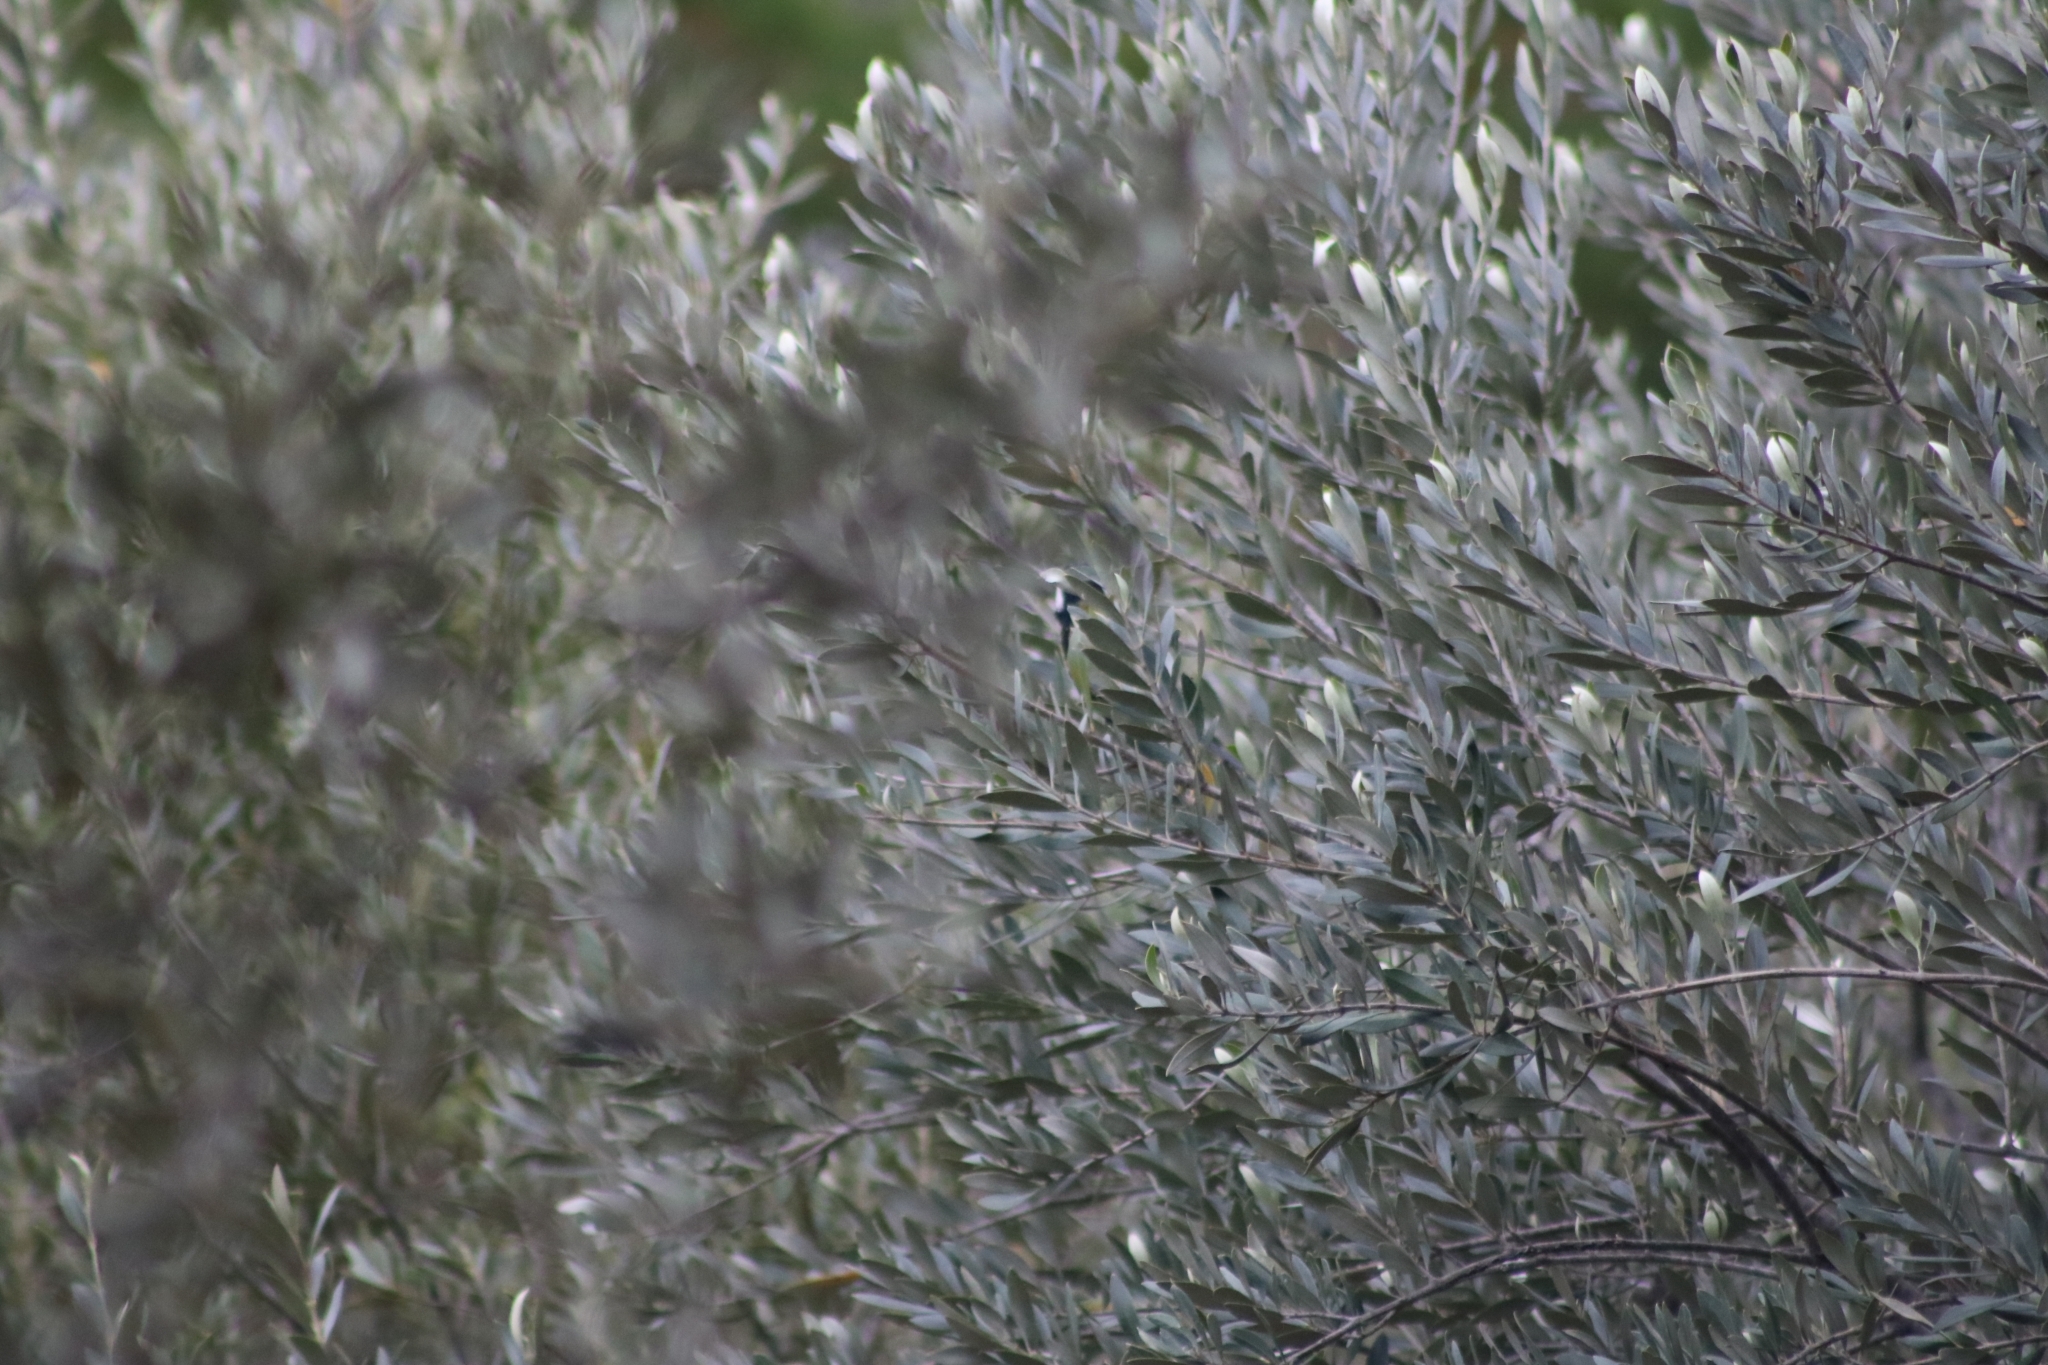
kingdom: Animalia
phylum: Chordata
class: Aves
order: Passeriformes
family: Paridae
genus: Parus
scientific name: Parus major
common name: Great tit
